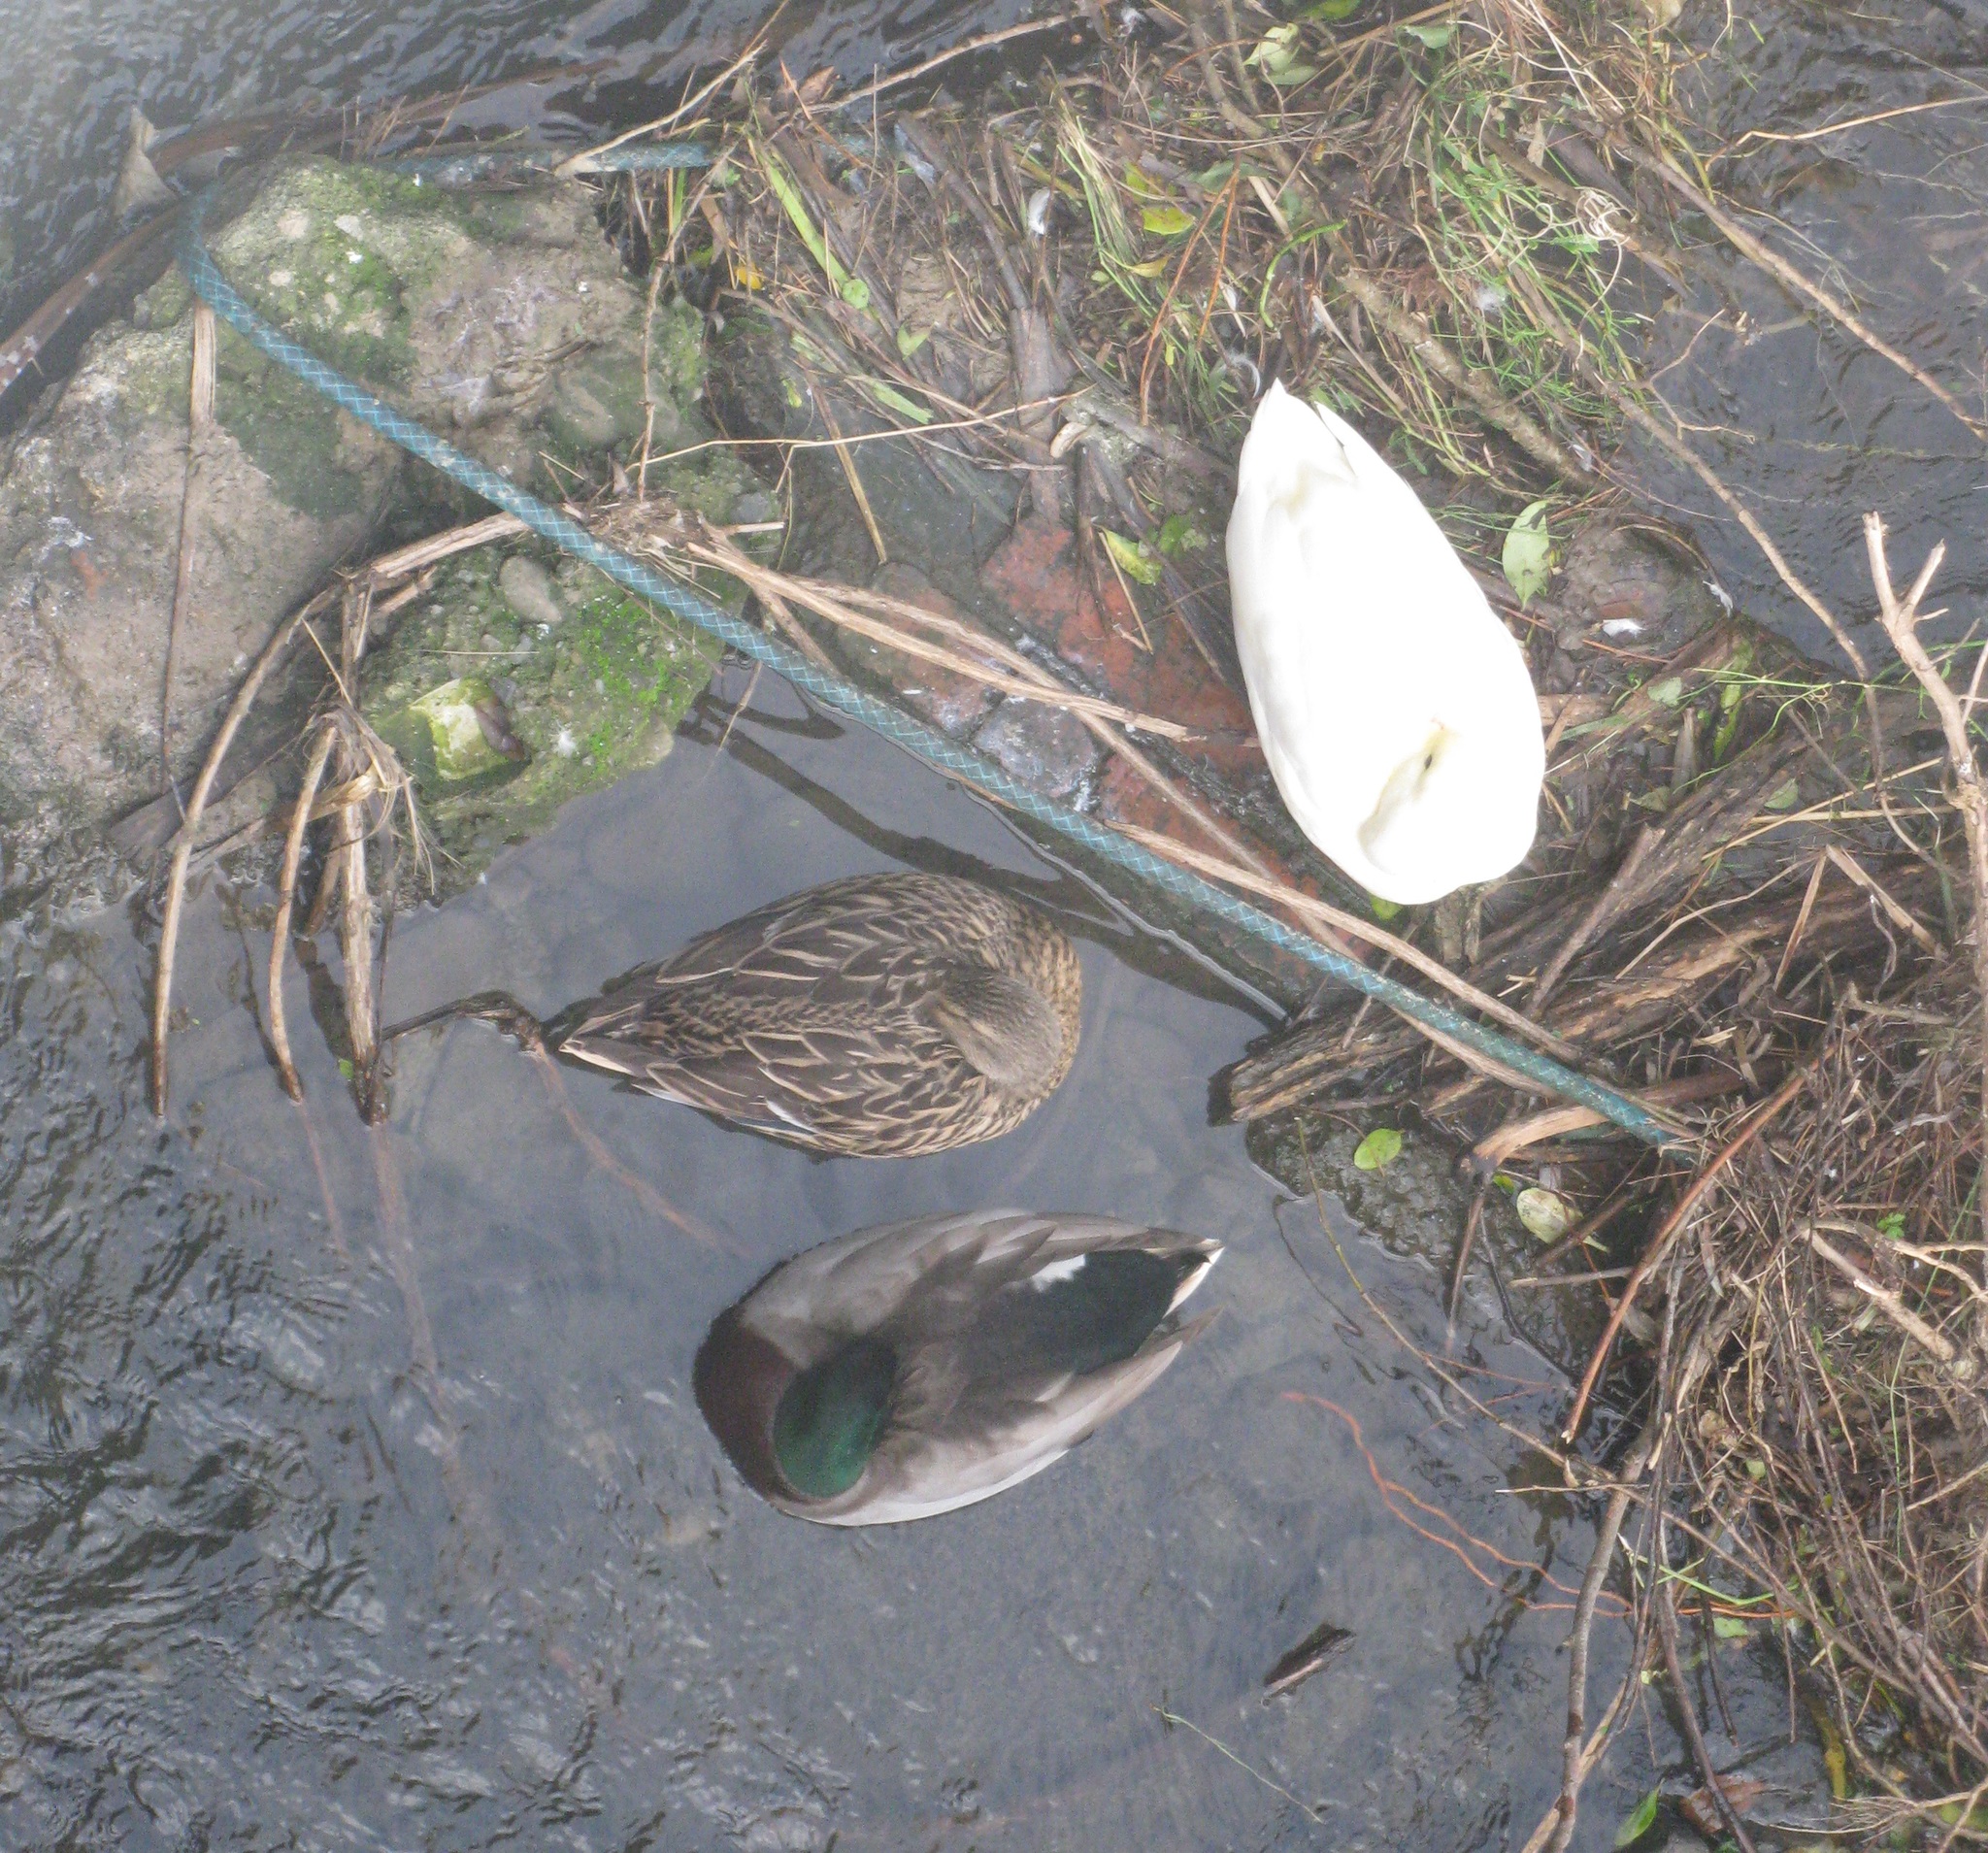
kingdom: Animalia
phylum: Chordata
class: Aves
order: Anseriformes
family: Anatidae
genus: Anas
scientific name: Anas platyrhynchos
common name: Mallard
